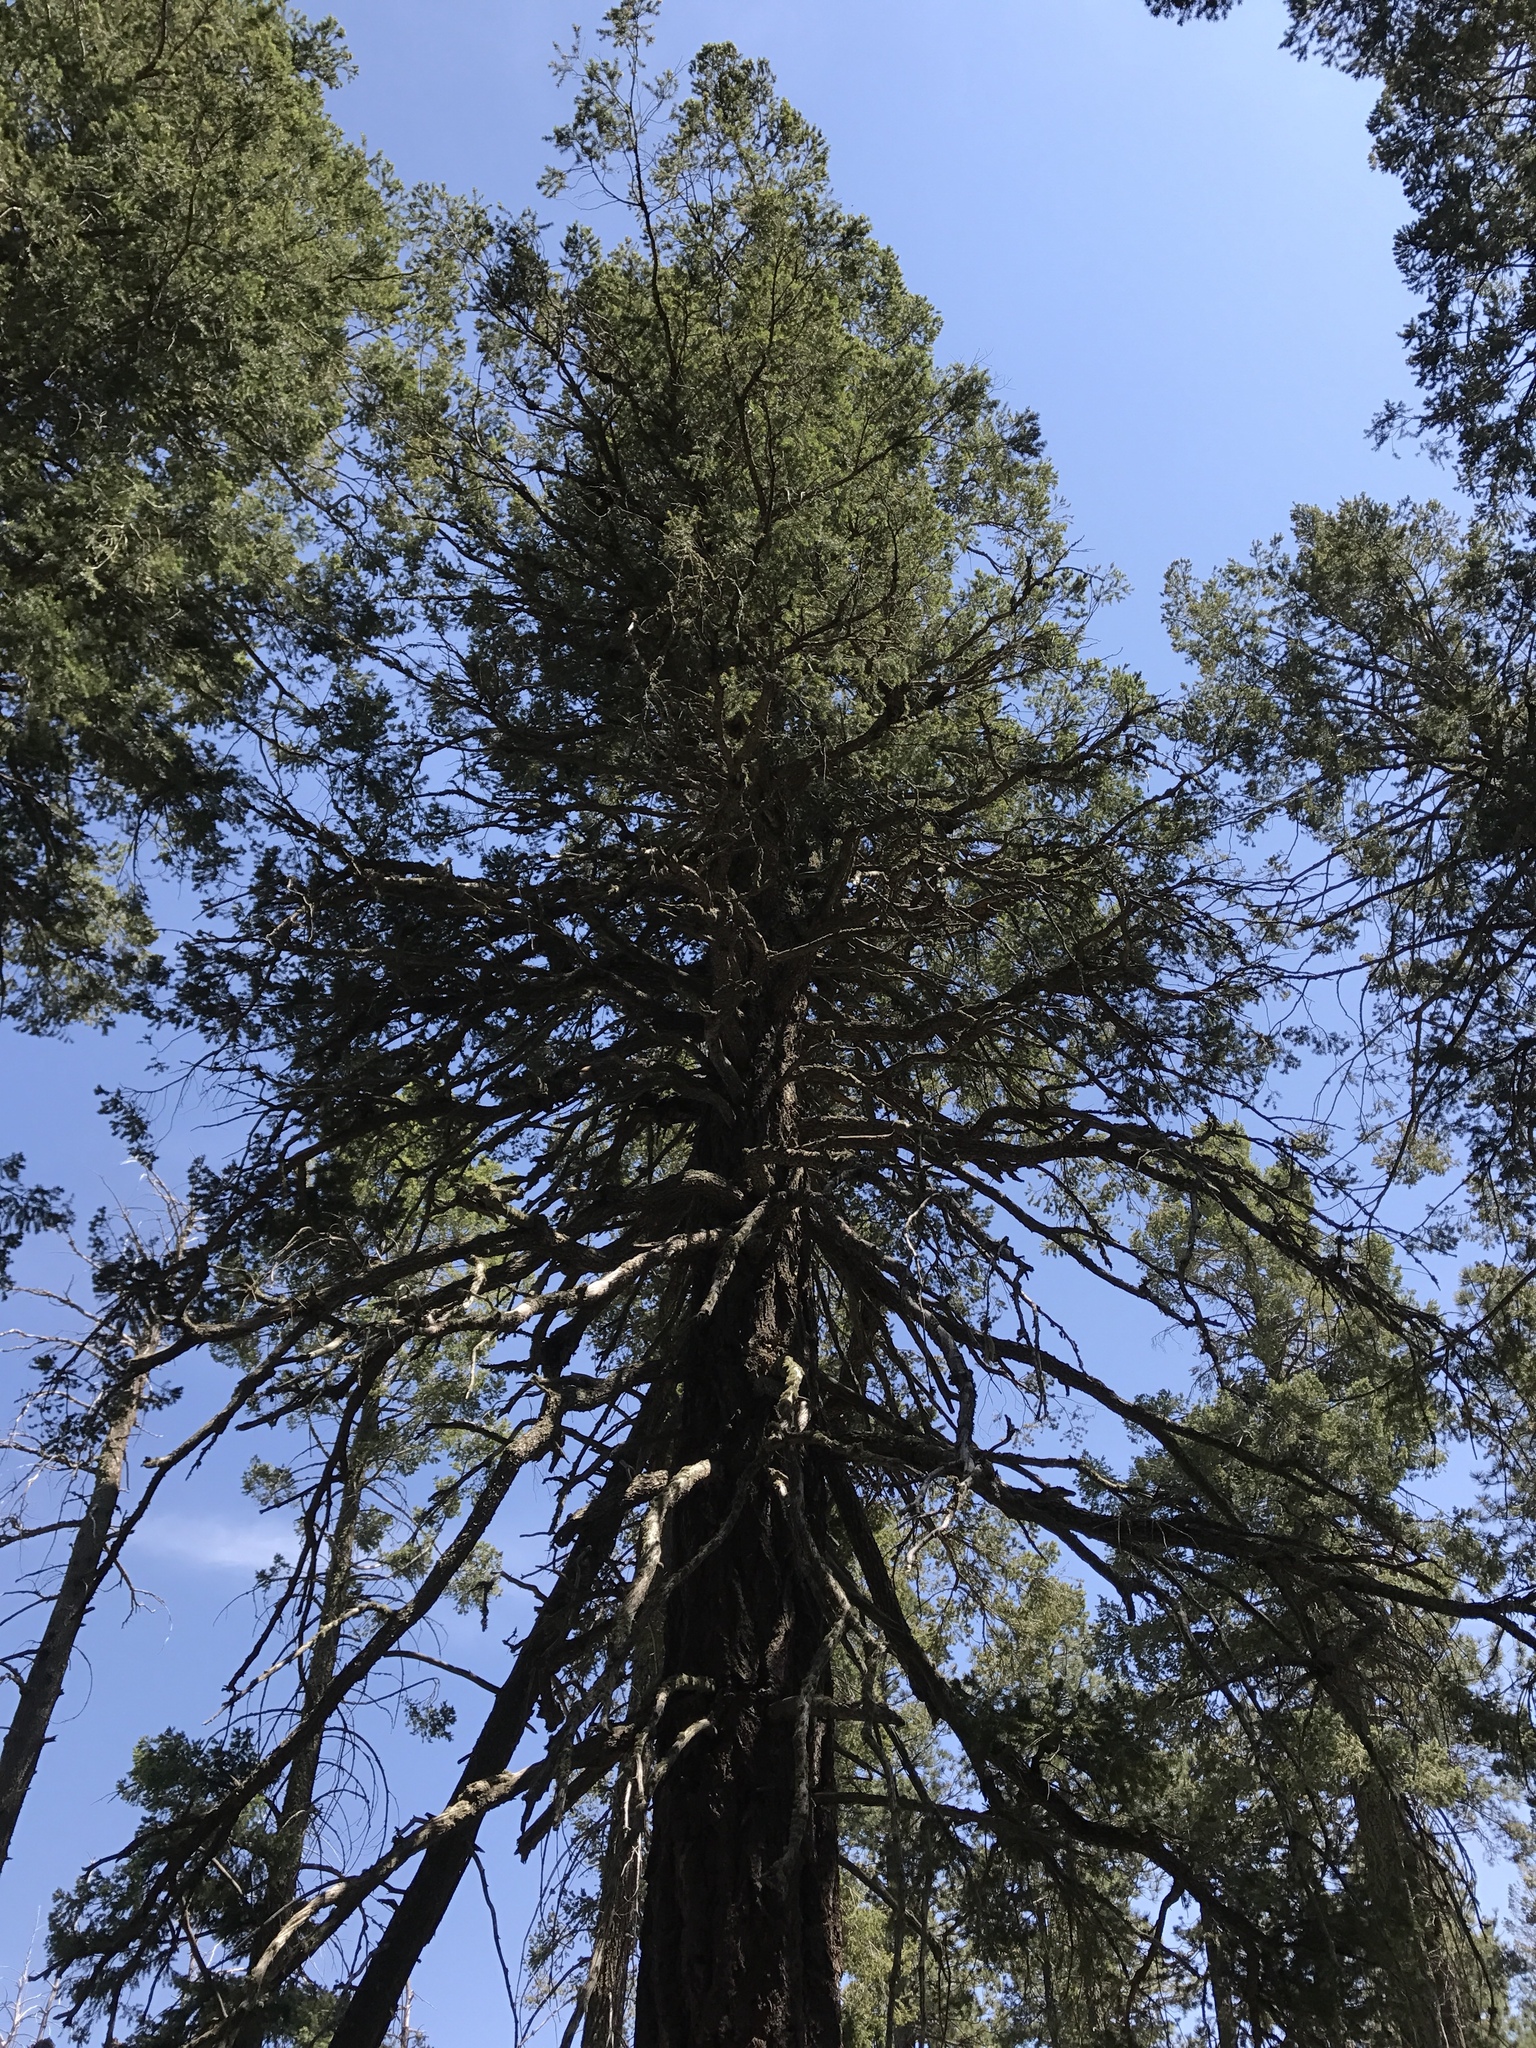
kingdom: Plantae
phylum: Tracheophyta
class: Pinopsida
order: Pinales
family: Pinaceae
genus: Pseudotsuga
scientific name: Pseudotsuga menziesii
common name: Douglas fir
